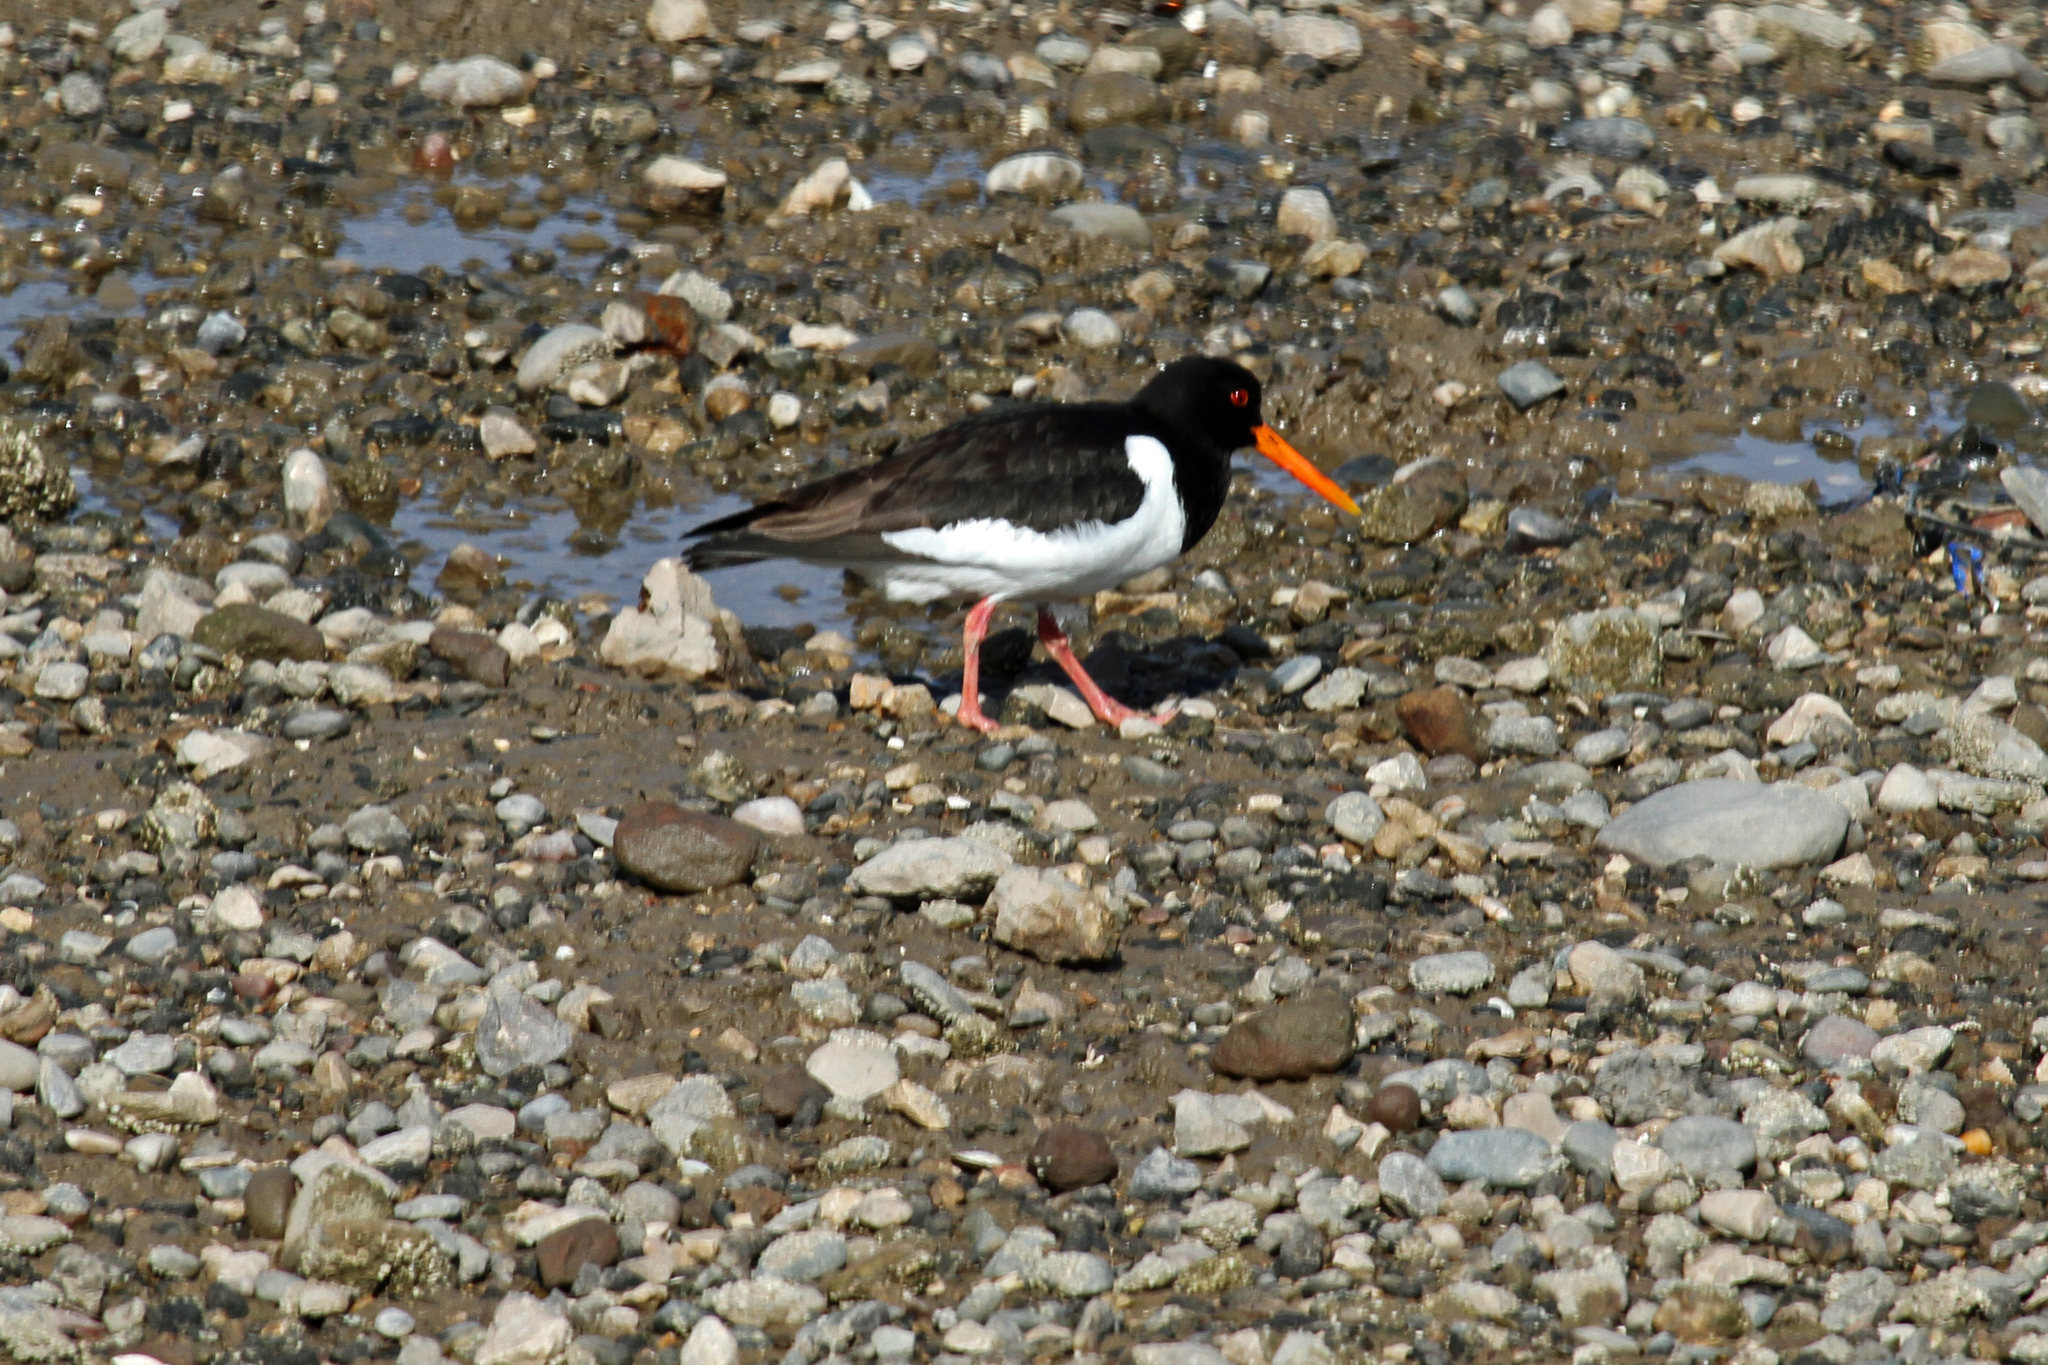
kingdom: Animalia
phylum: Chordata
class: Aves
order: Charadriiformes
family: Haematopodidae
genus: Haematopus
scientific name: Haematopus ostralegus
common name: Eurasian oystercatcher
